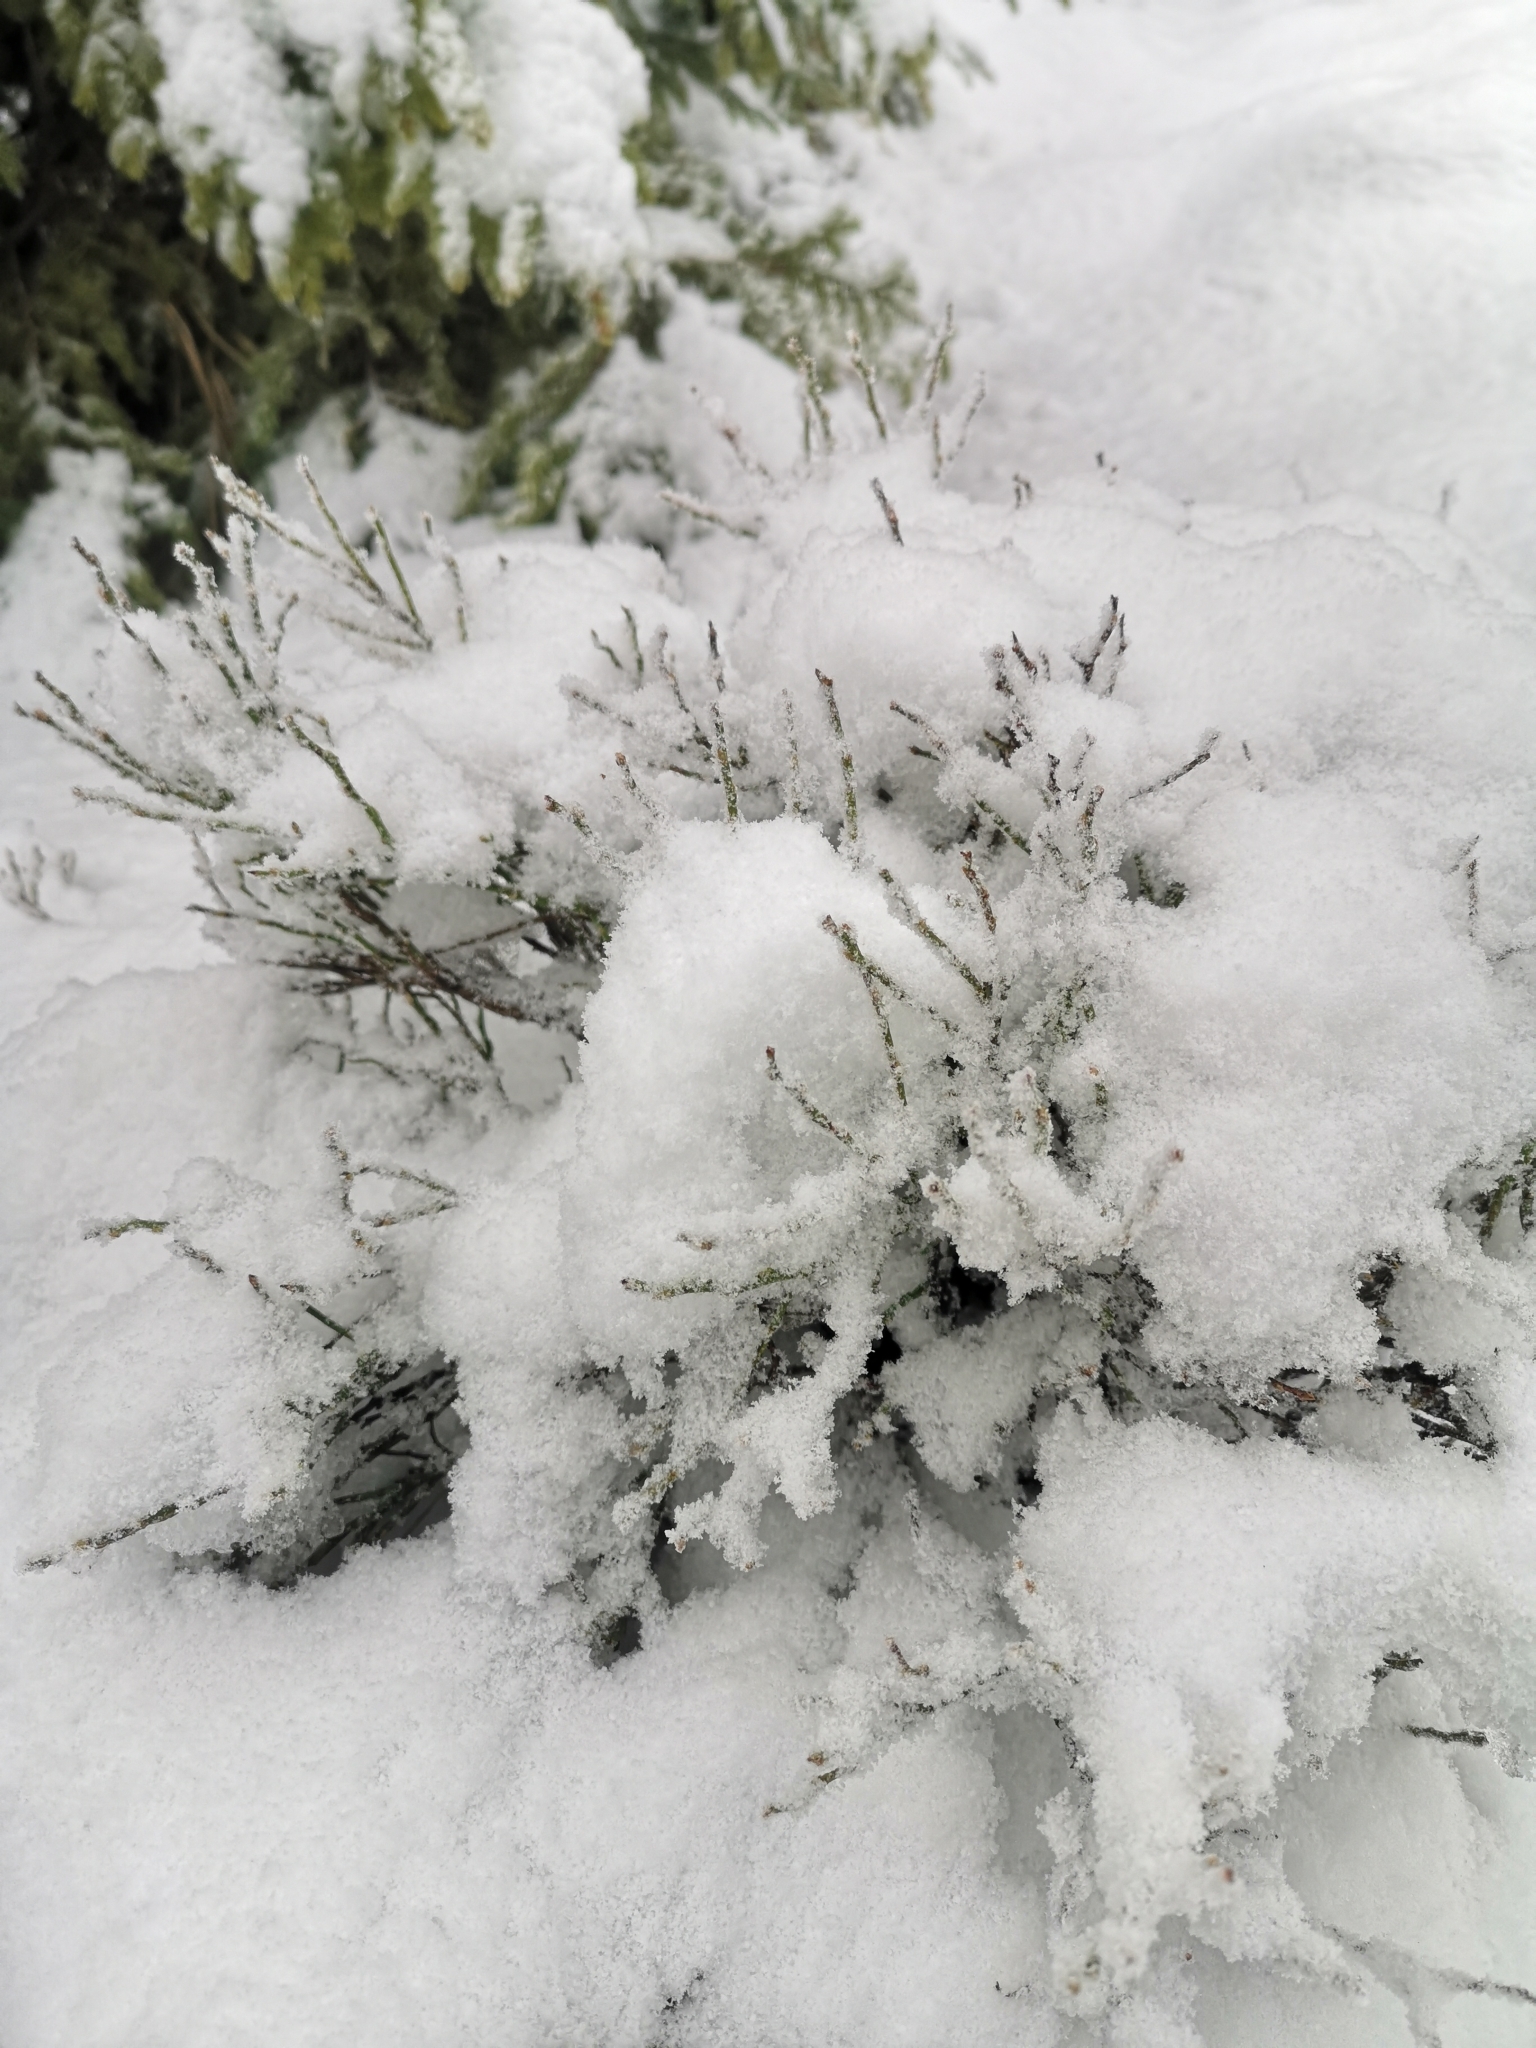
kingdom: Plantae
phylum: Tracheophyta
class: Magnoliopsida
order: Ericales
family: Ericaceae
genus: Vaccinium
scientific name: Vaccinium myrtillus
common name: Bilberry
